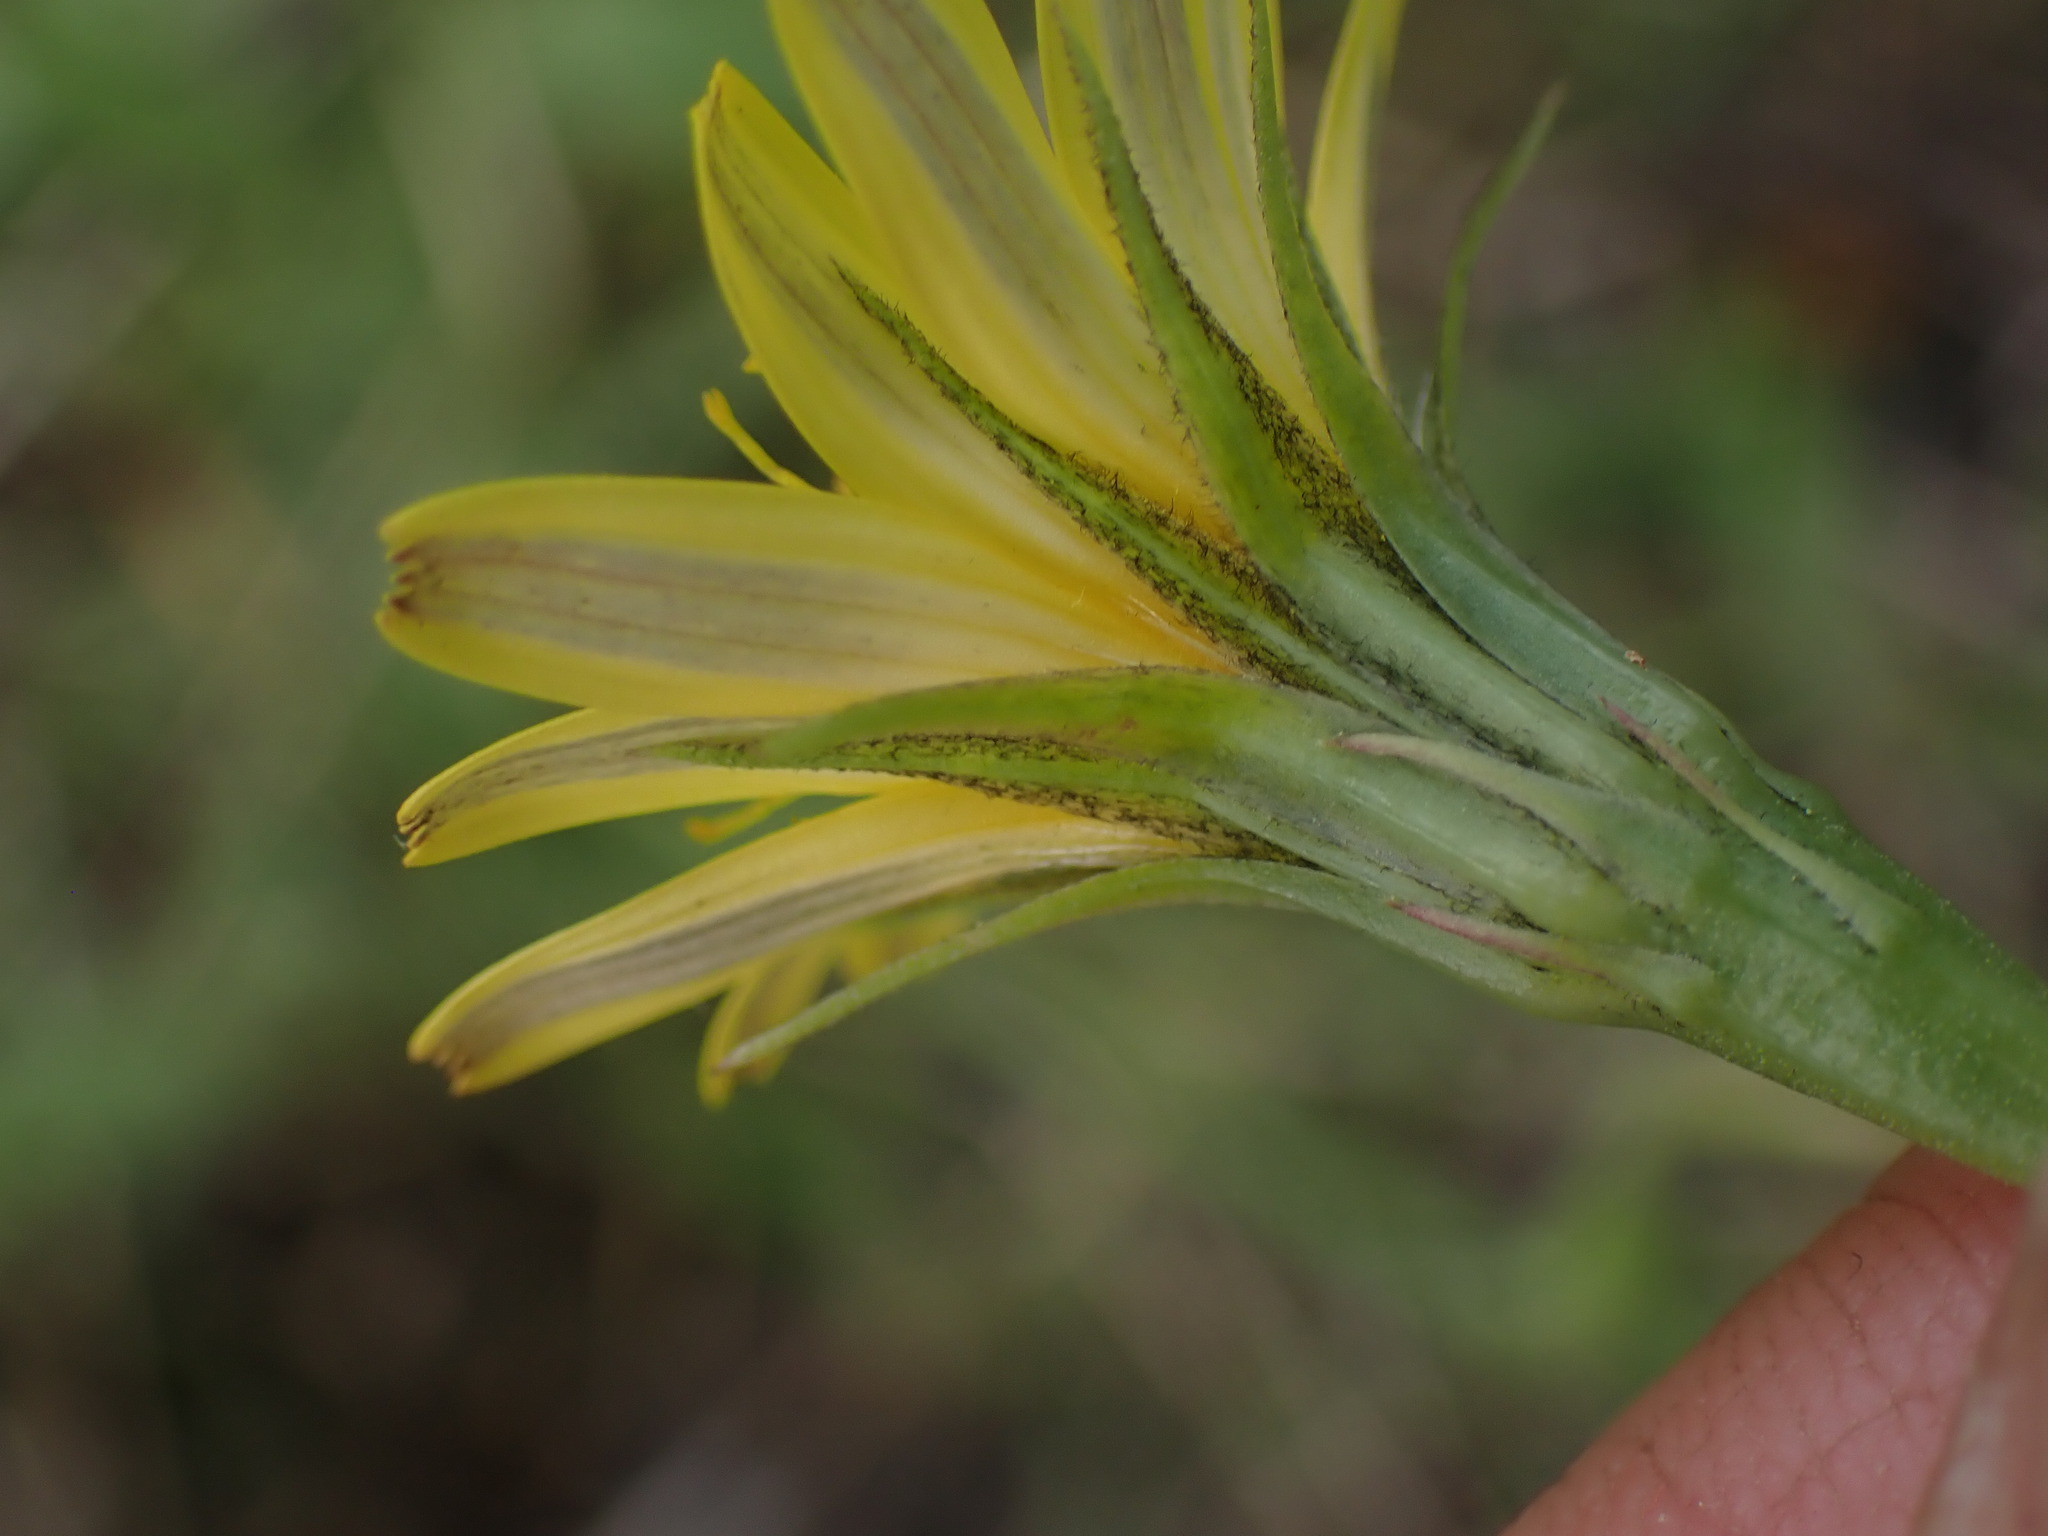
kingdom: Plantae
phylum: Tracheophyta
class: Magnoliopsida
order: Asterales
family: Asteraceae
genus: Agoseris
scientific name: Agoseris heterophylla
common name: Annual agoseris
